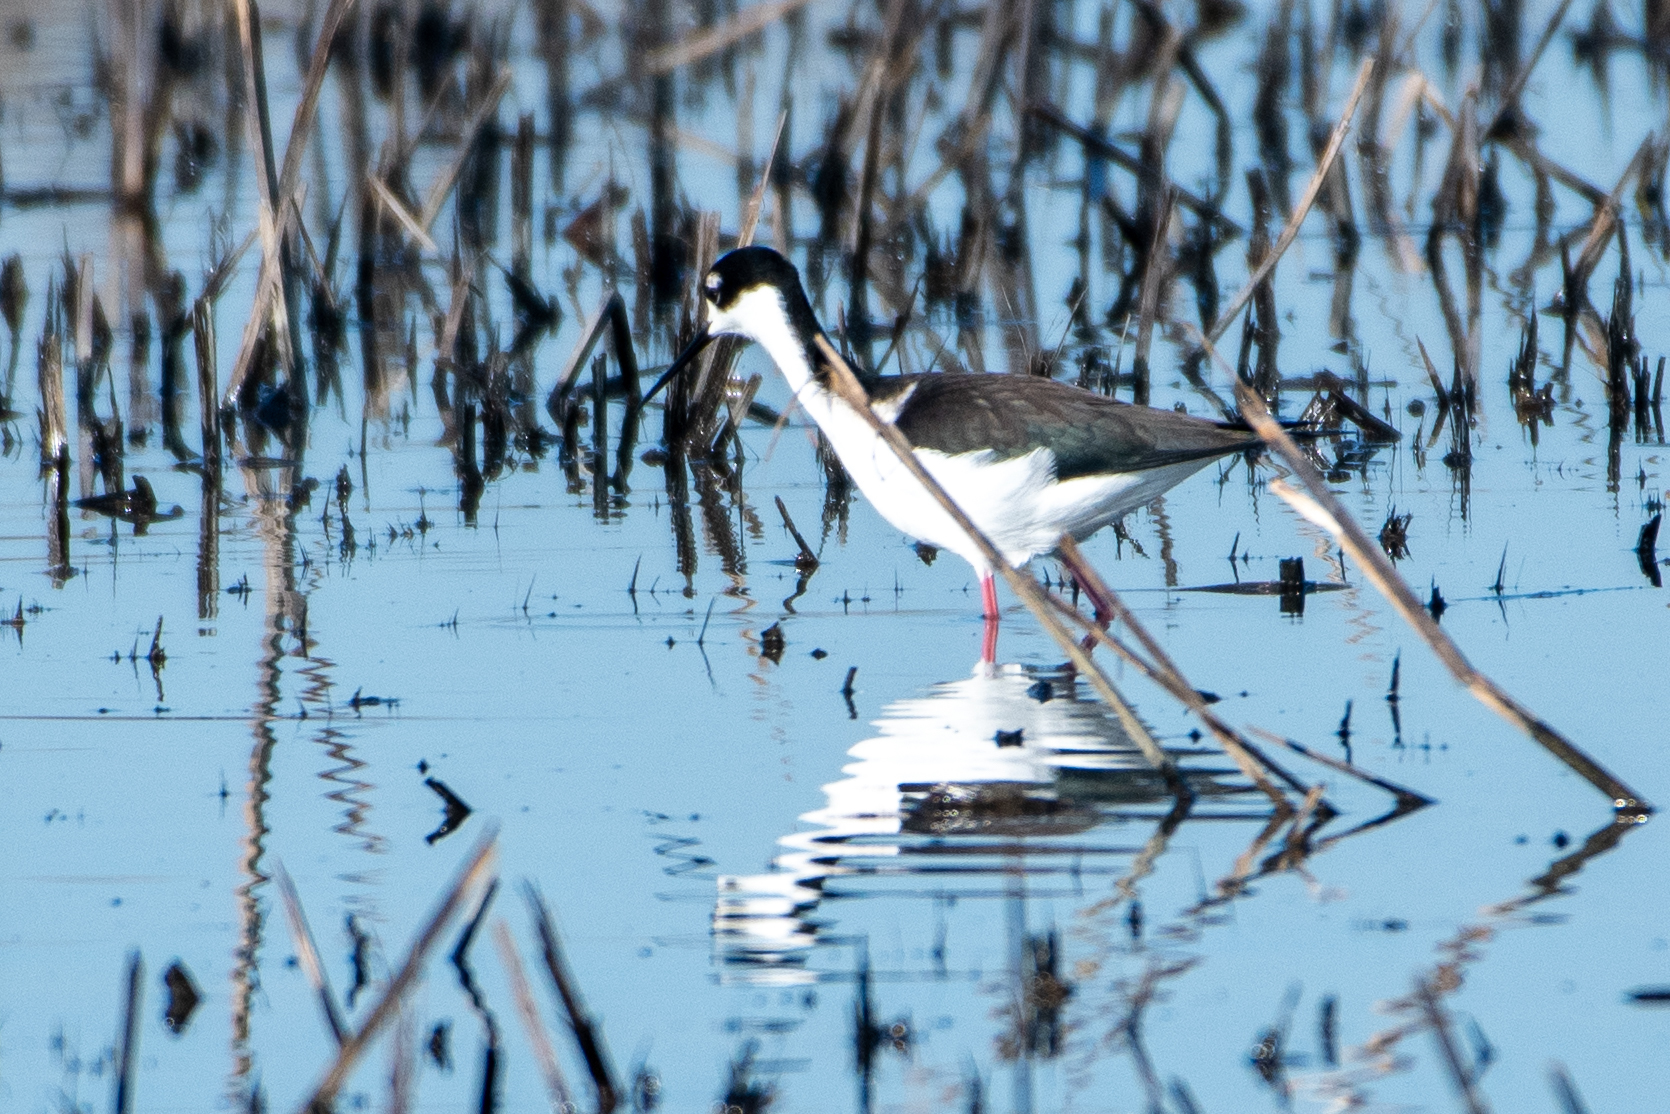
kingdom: Animalia
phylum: Chordata
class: Aves
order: Charadriiformes
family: Recurvirostridae
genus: Himantopus
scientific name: Himantopus mexicanus
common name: Black-necked stilt
